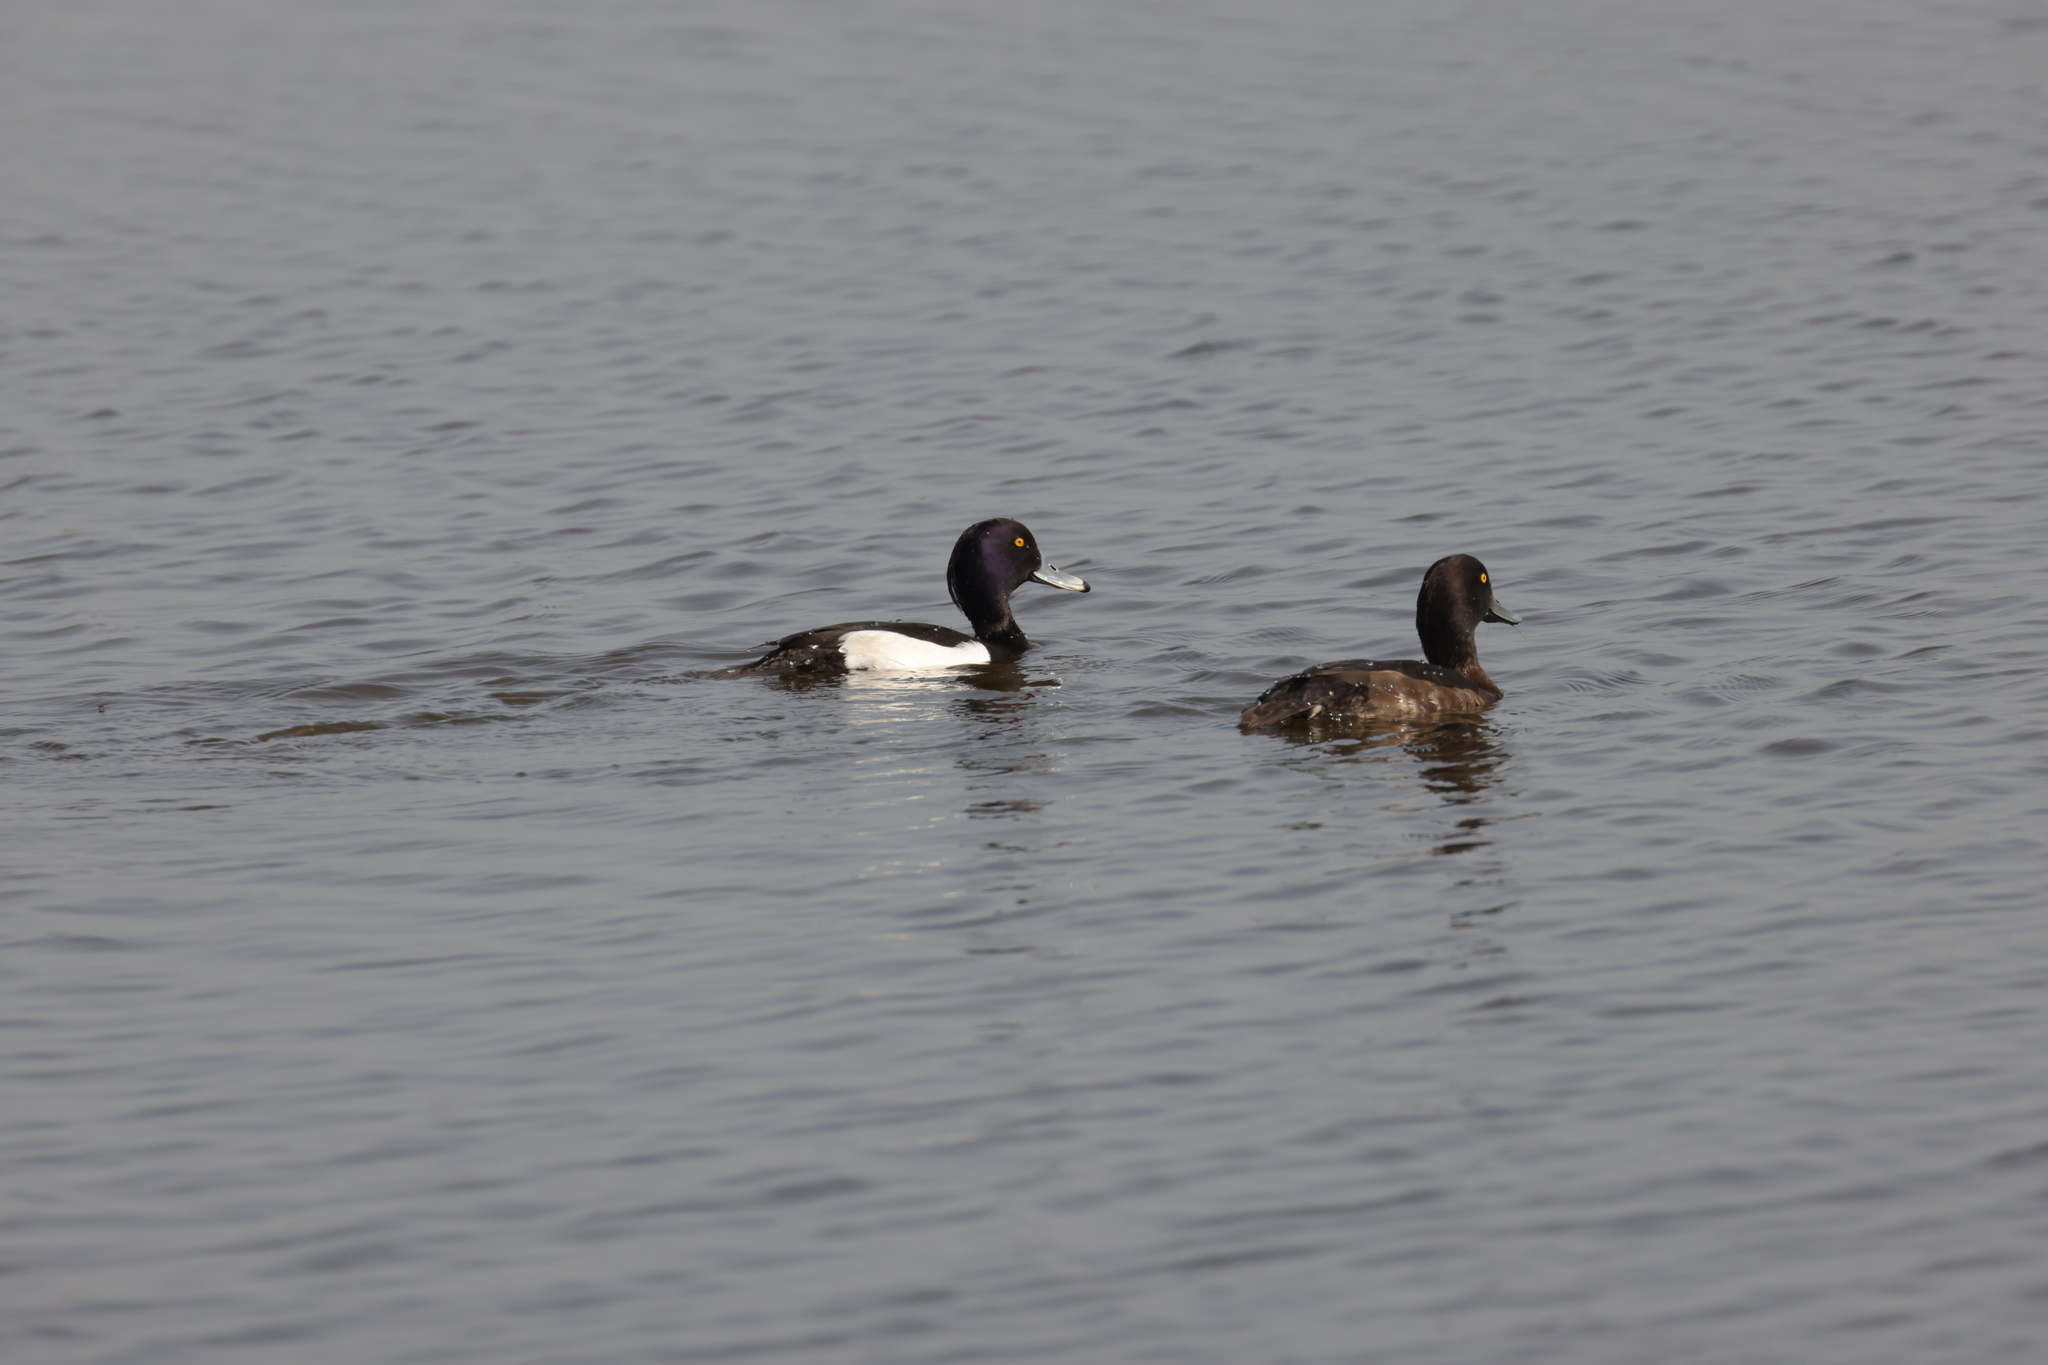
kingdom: Animalia
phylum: Chordata
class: Aves
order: Anseriformes
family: Anatidae
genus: Aythya
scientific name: Aythya fuligula
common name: Tufted duck
